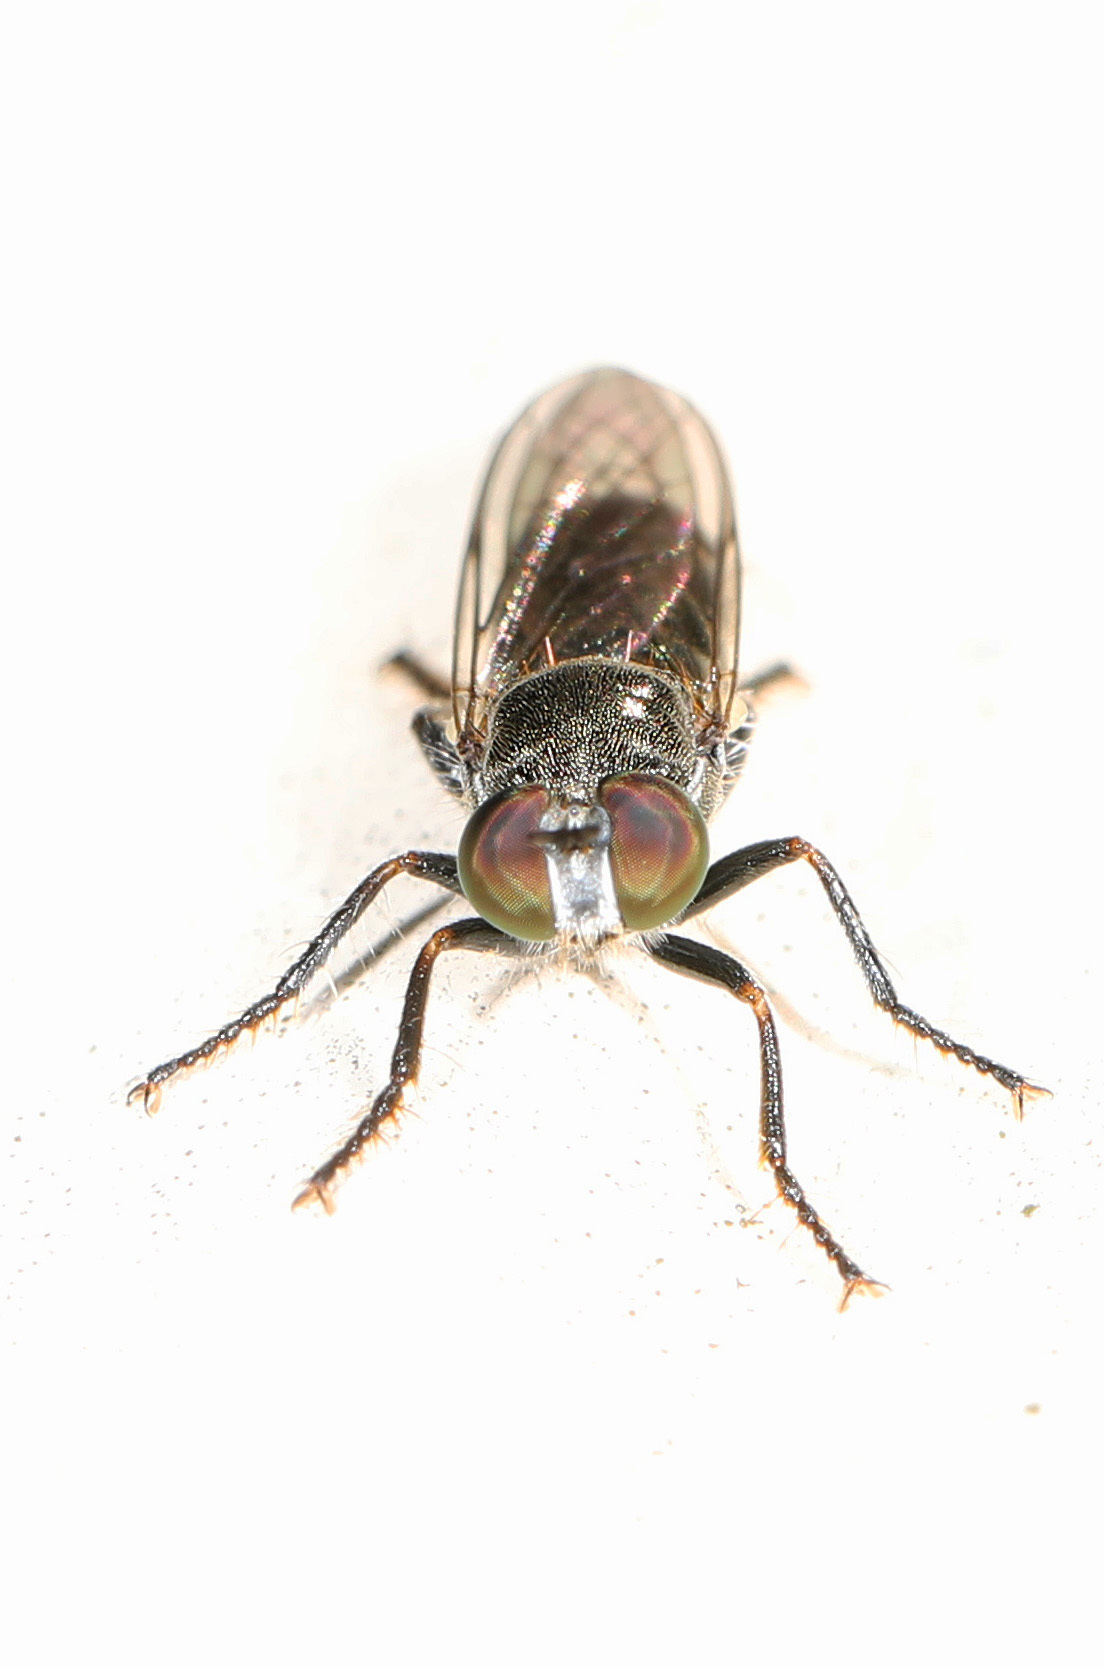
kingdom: Animalia
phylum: Arthropoda
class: Insecta
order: Diptera
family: Asilidae
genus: Atomosia
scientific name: Atomosia puella
